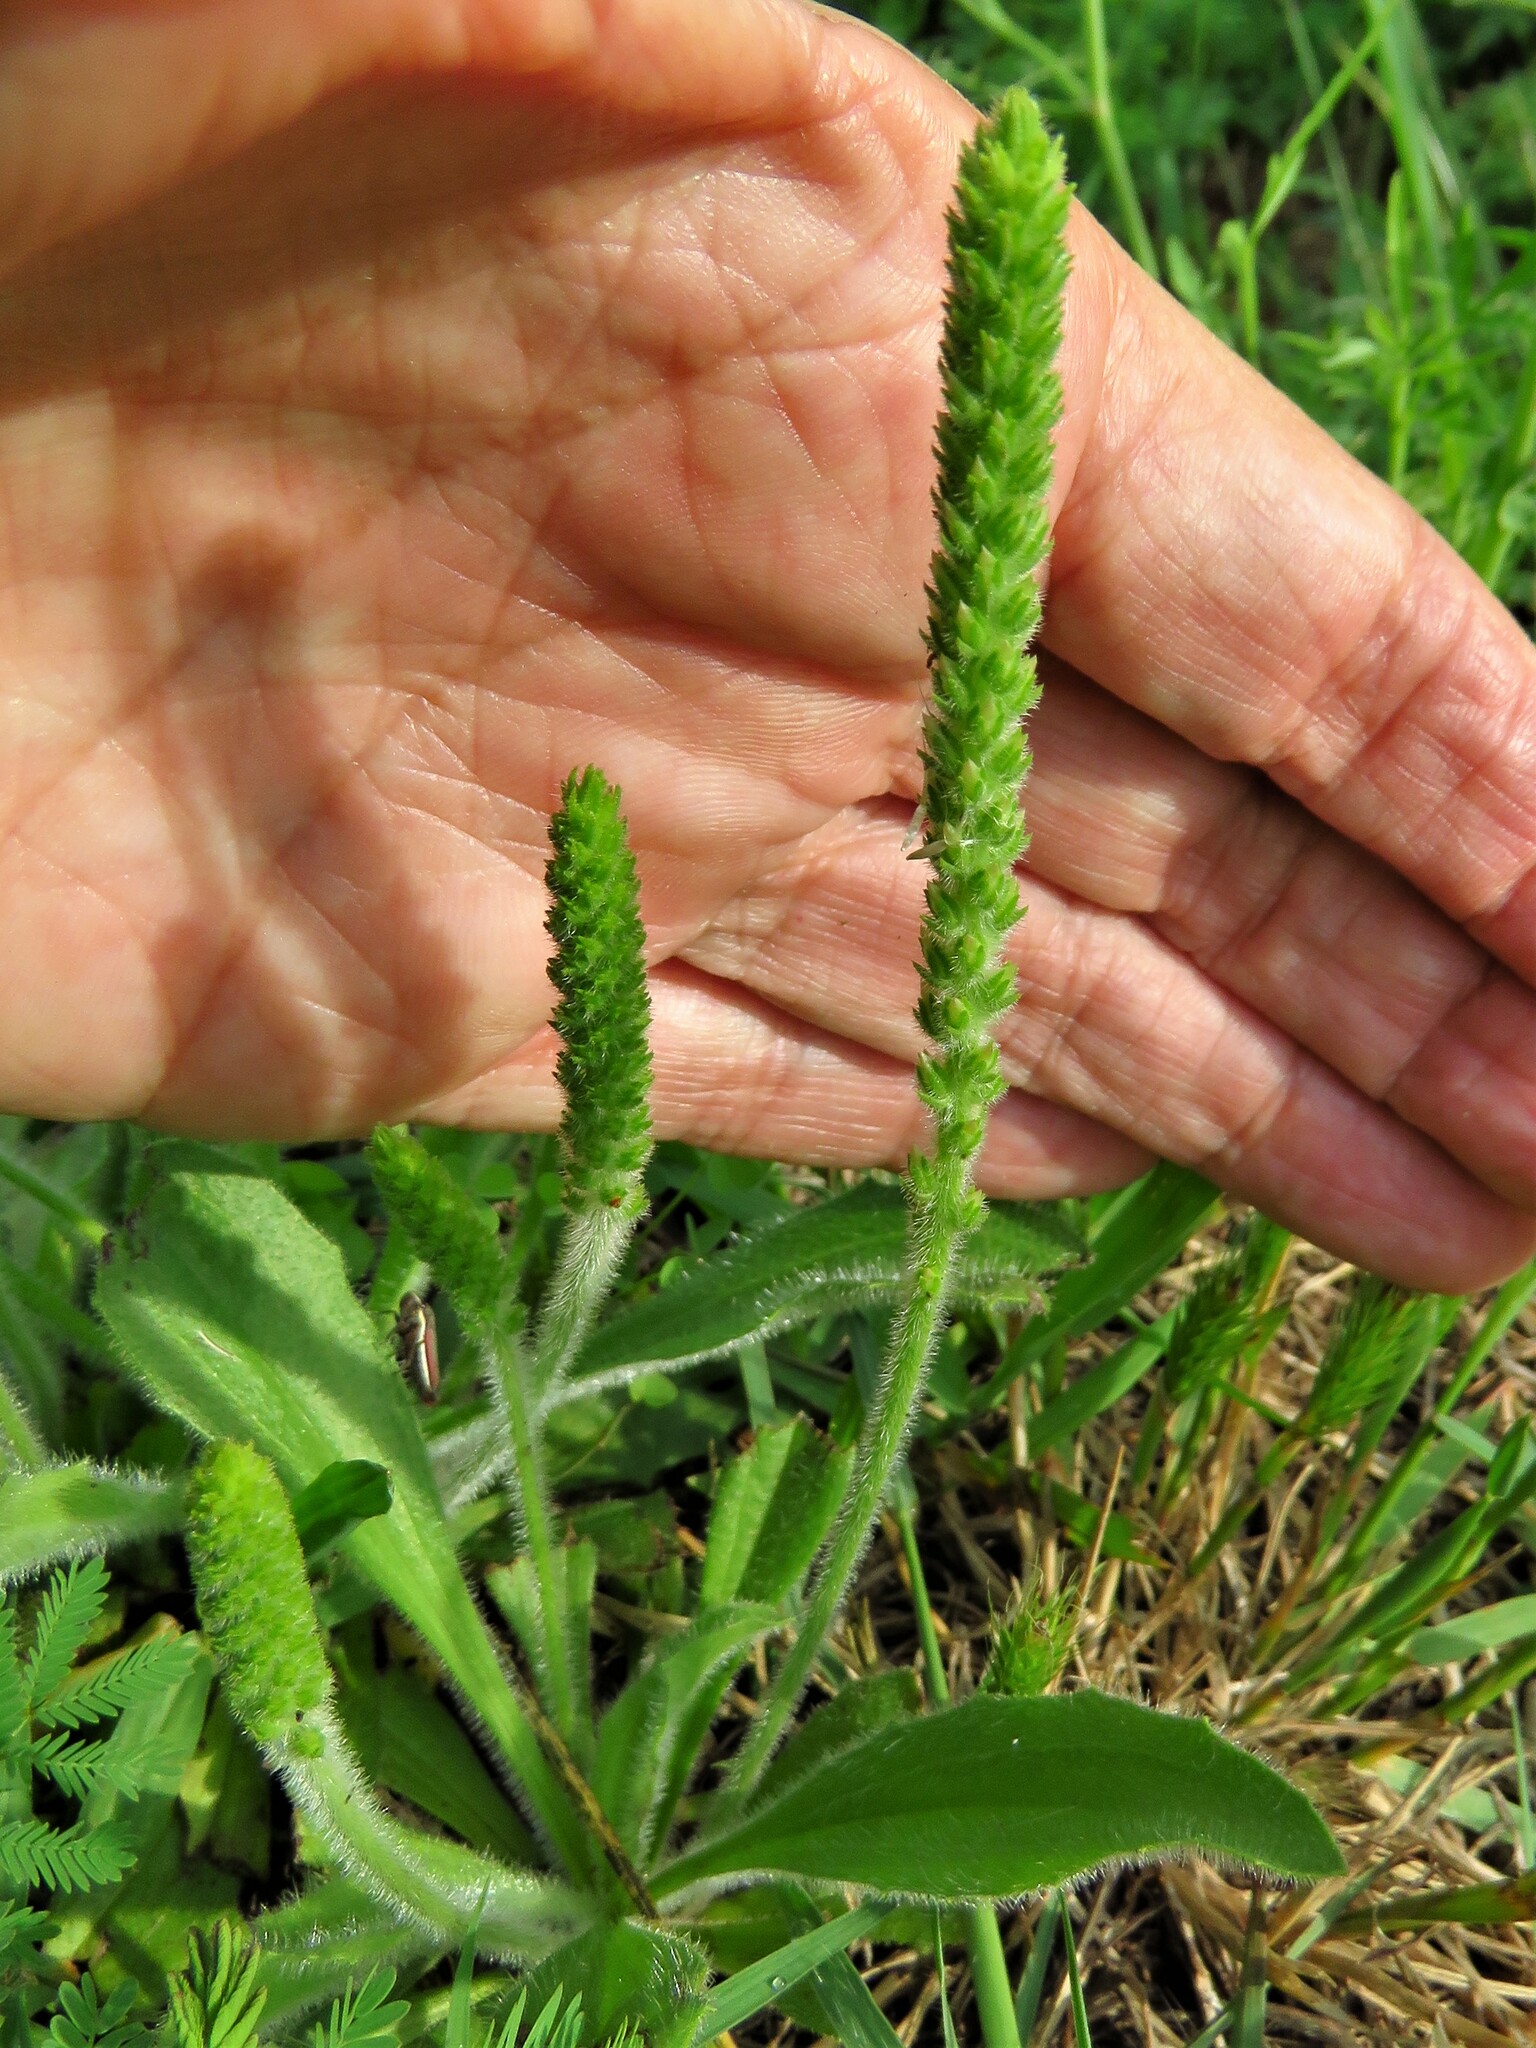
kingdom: Plantae
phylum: Tracheophyta
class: Magnoliopsida
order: Lamiales
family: Plantaginaceae
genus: Plantago
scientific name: Plantago rhodosperma
